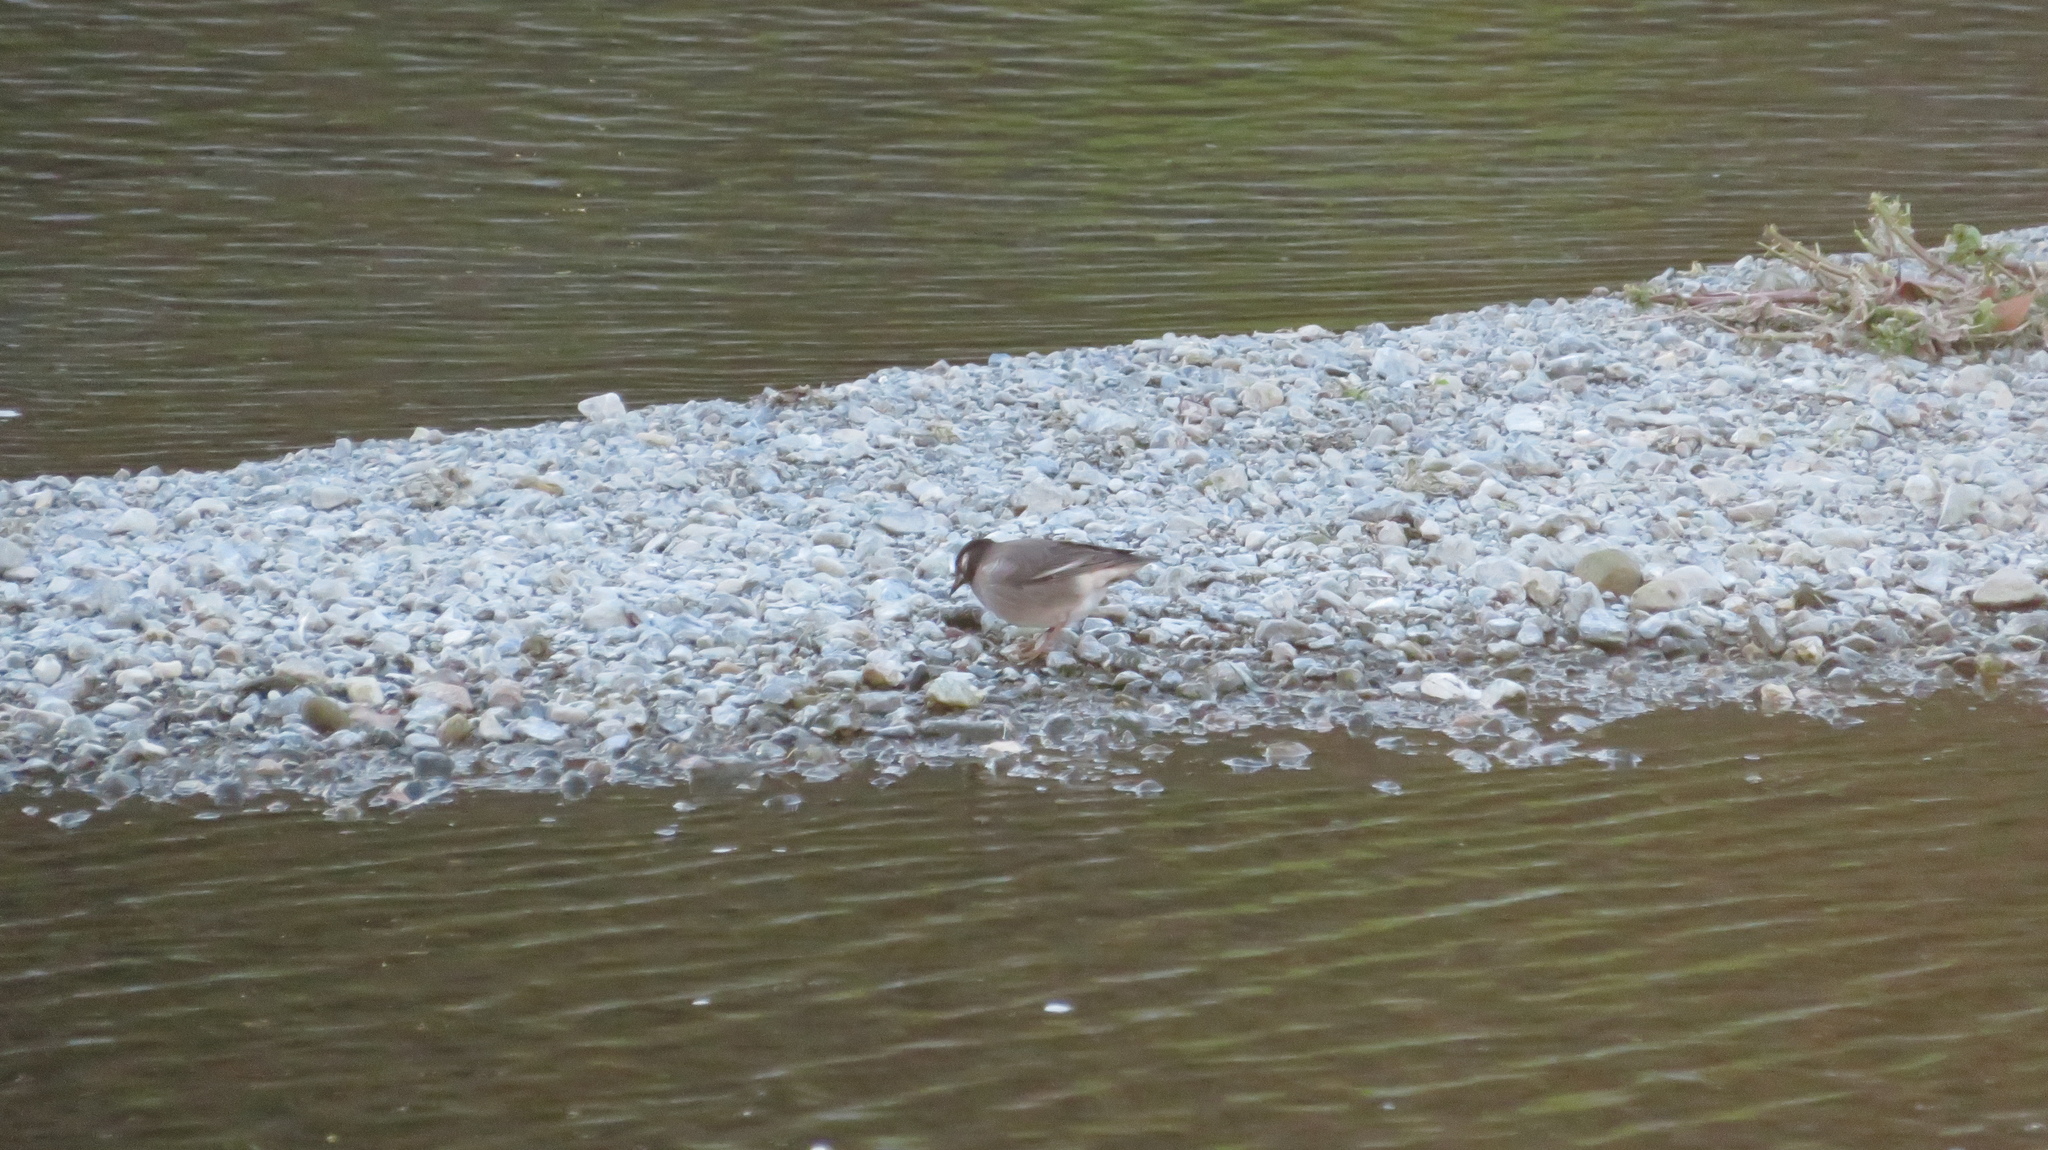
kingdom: Animalia
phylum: Chordata
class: Aves
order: Passeriformes
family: Sturnidae
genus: Spodiopsar
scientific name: Spodiopsar cineraceus
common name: White-cheeked starling
